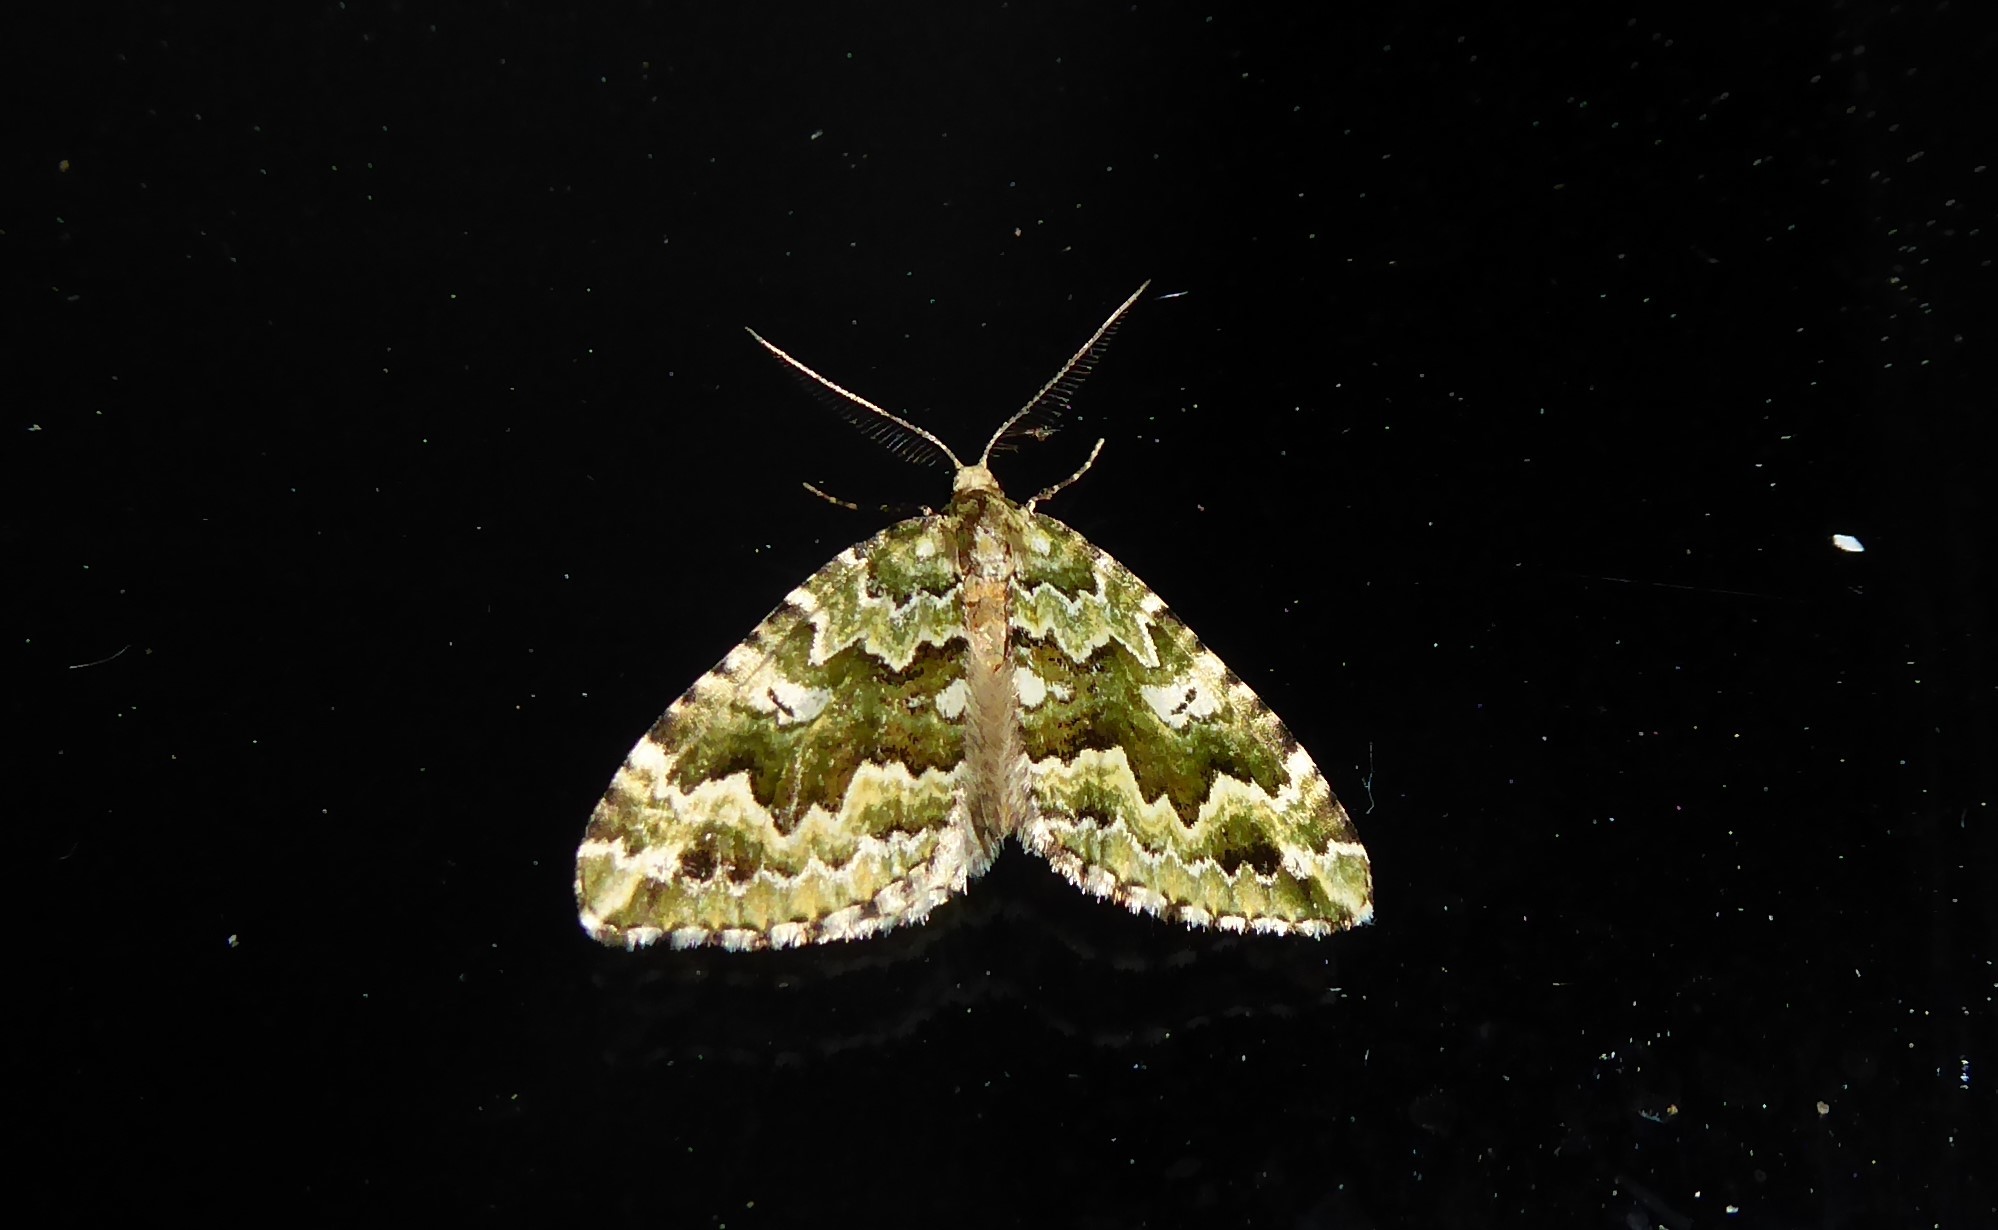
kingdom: Animalia
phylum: Arthropoda
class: Insecta
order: Lepidoptera
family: Geometridae
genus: Asaphodes
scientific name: Asaphodes beata
